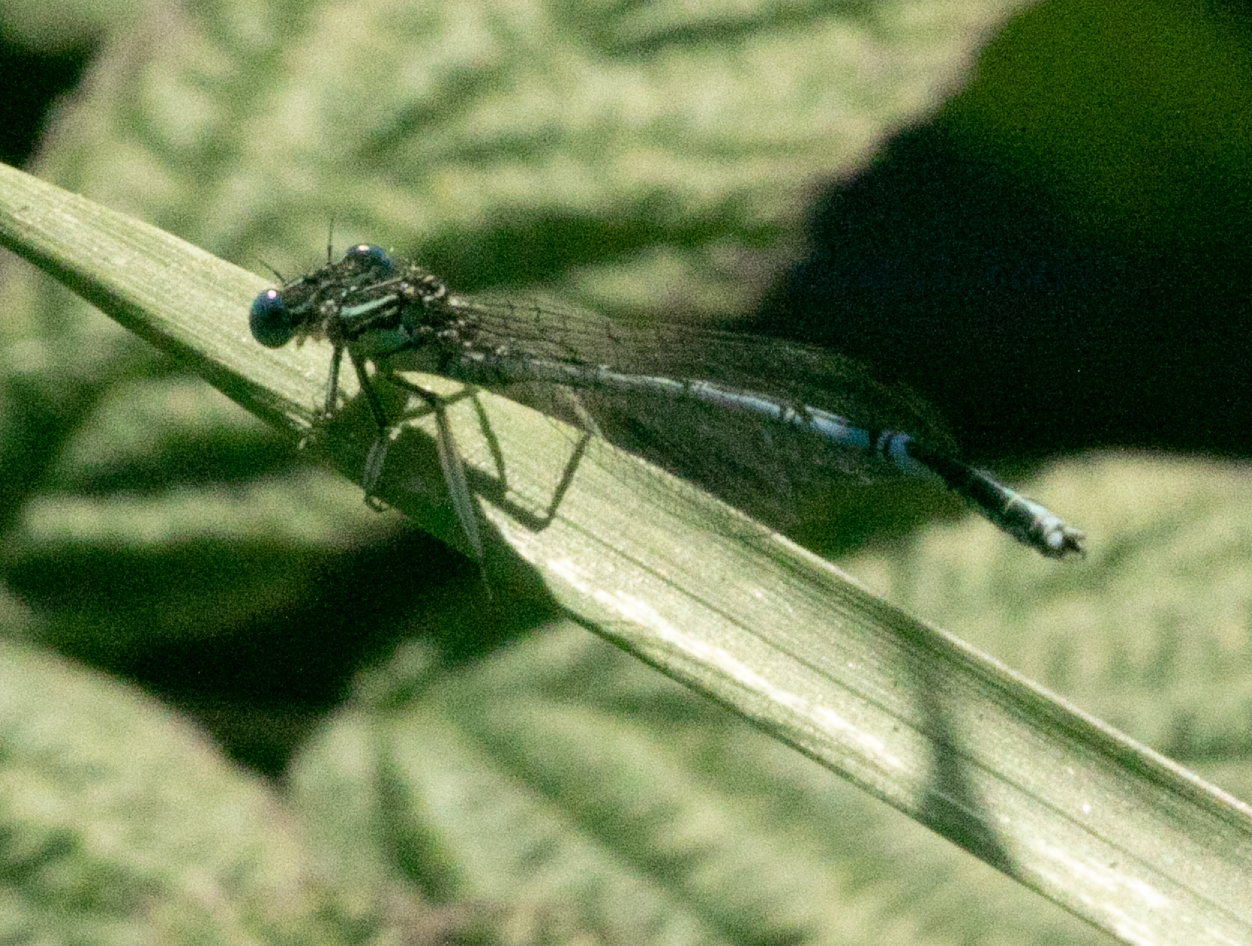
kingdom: Animalia
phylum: Arthropoda
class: Insecta
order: Odonata
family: Platycnemididae
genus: Platycnemis
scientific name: Platycnemis pennipes
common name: White-legged damselfly
